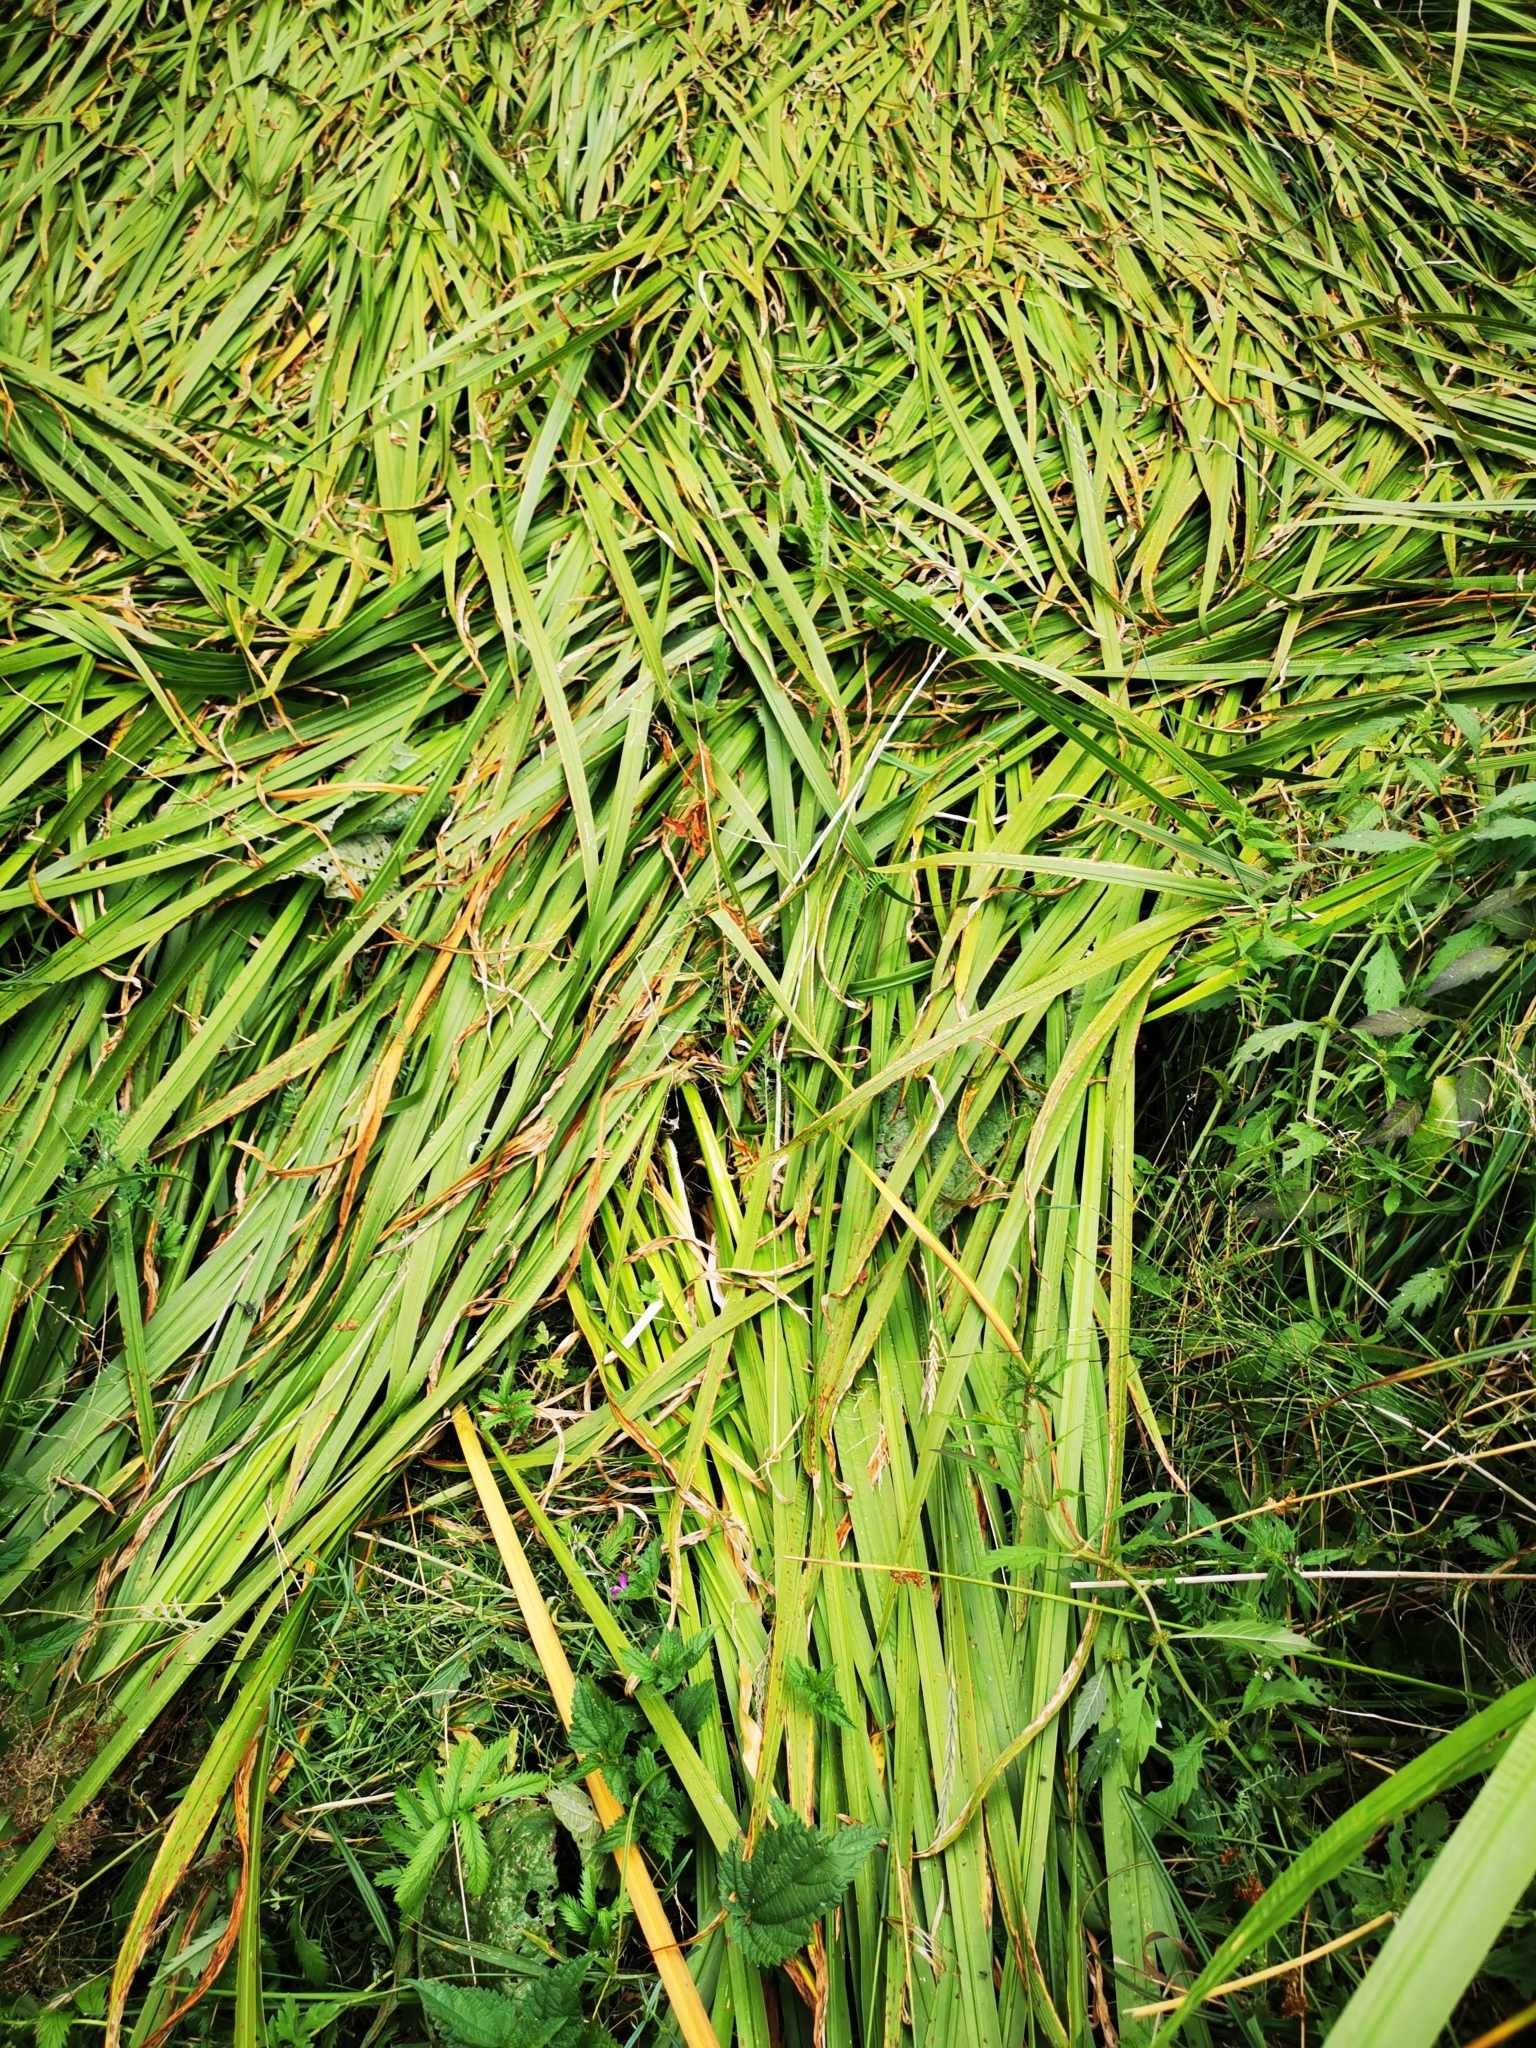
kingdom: Plantae
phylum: Tracheophyta
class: Liliopsida
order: Acorales
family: Acoraceae
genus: Acorus
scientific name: Acorus calamus
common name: Sweet-flag
